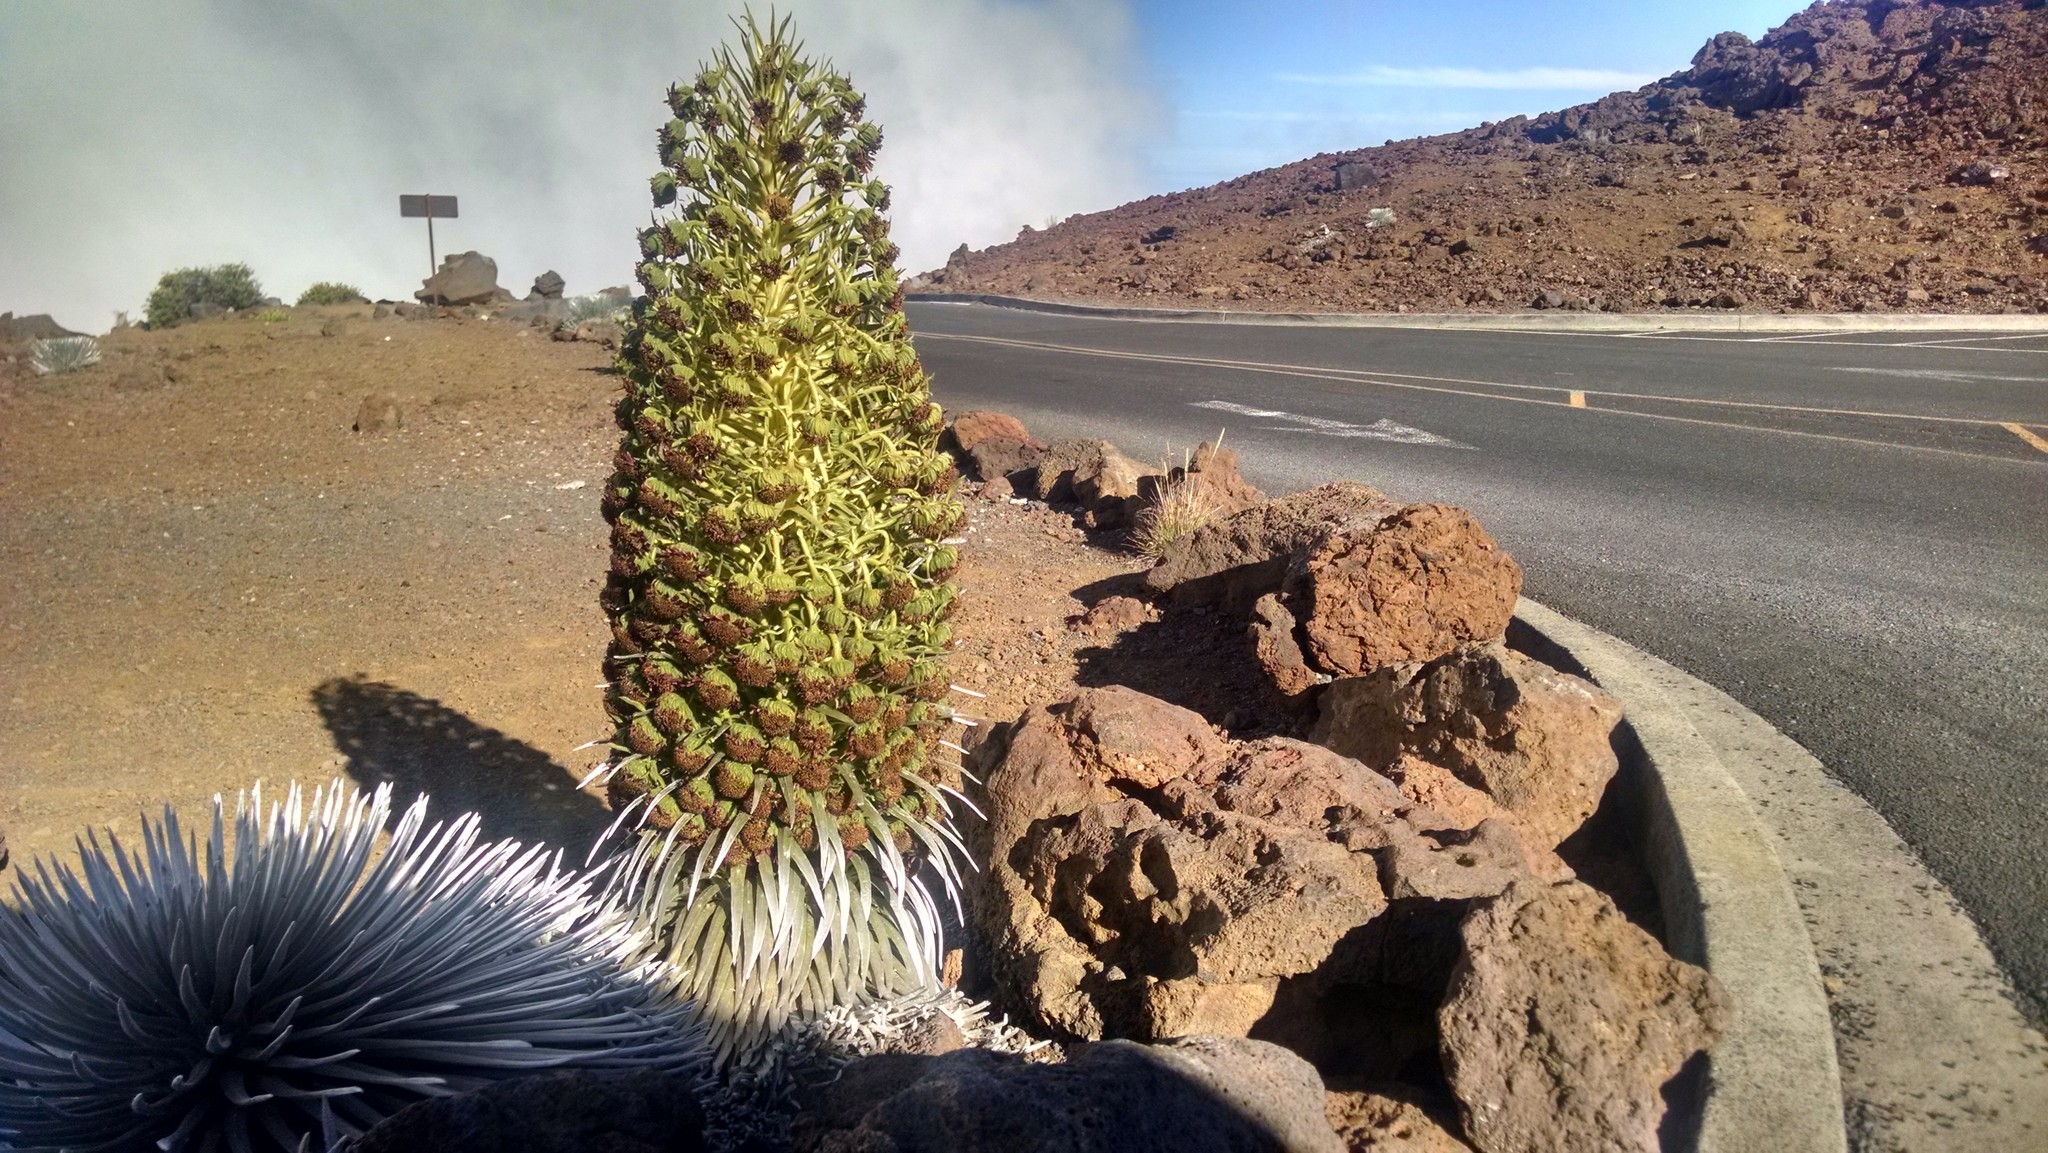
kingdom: Plantae
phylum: Tracheophyta
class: Magnoliopsida
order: Asterales
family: Asteraceae
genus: Argyroxiphium
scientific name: Argyroxiphium sandwicense
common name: Silversword
